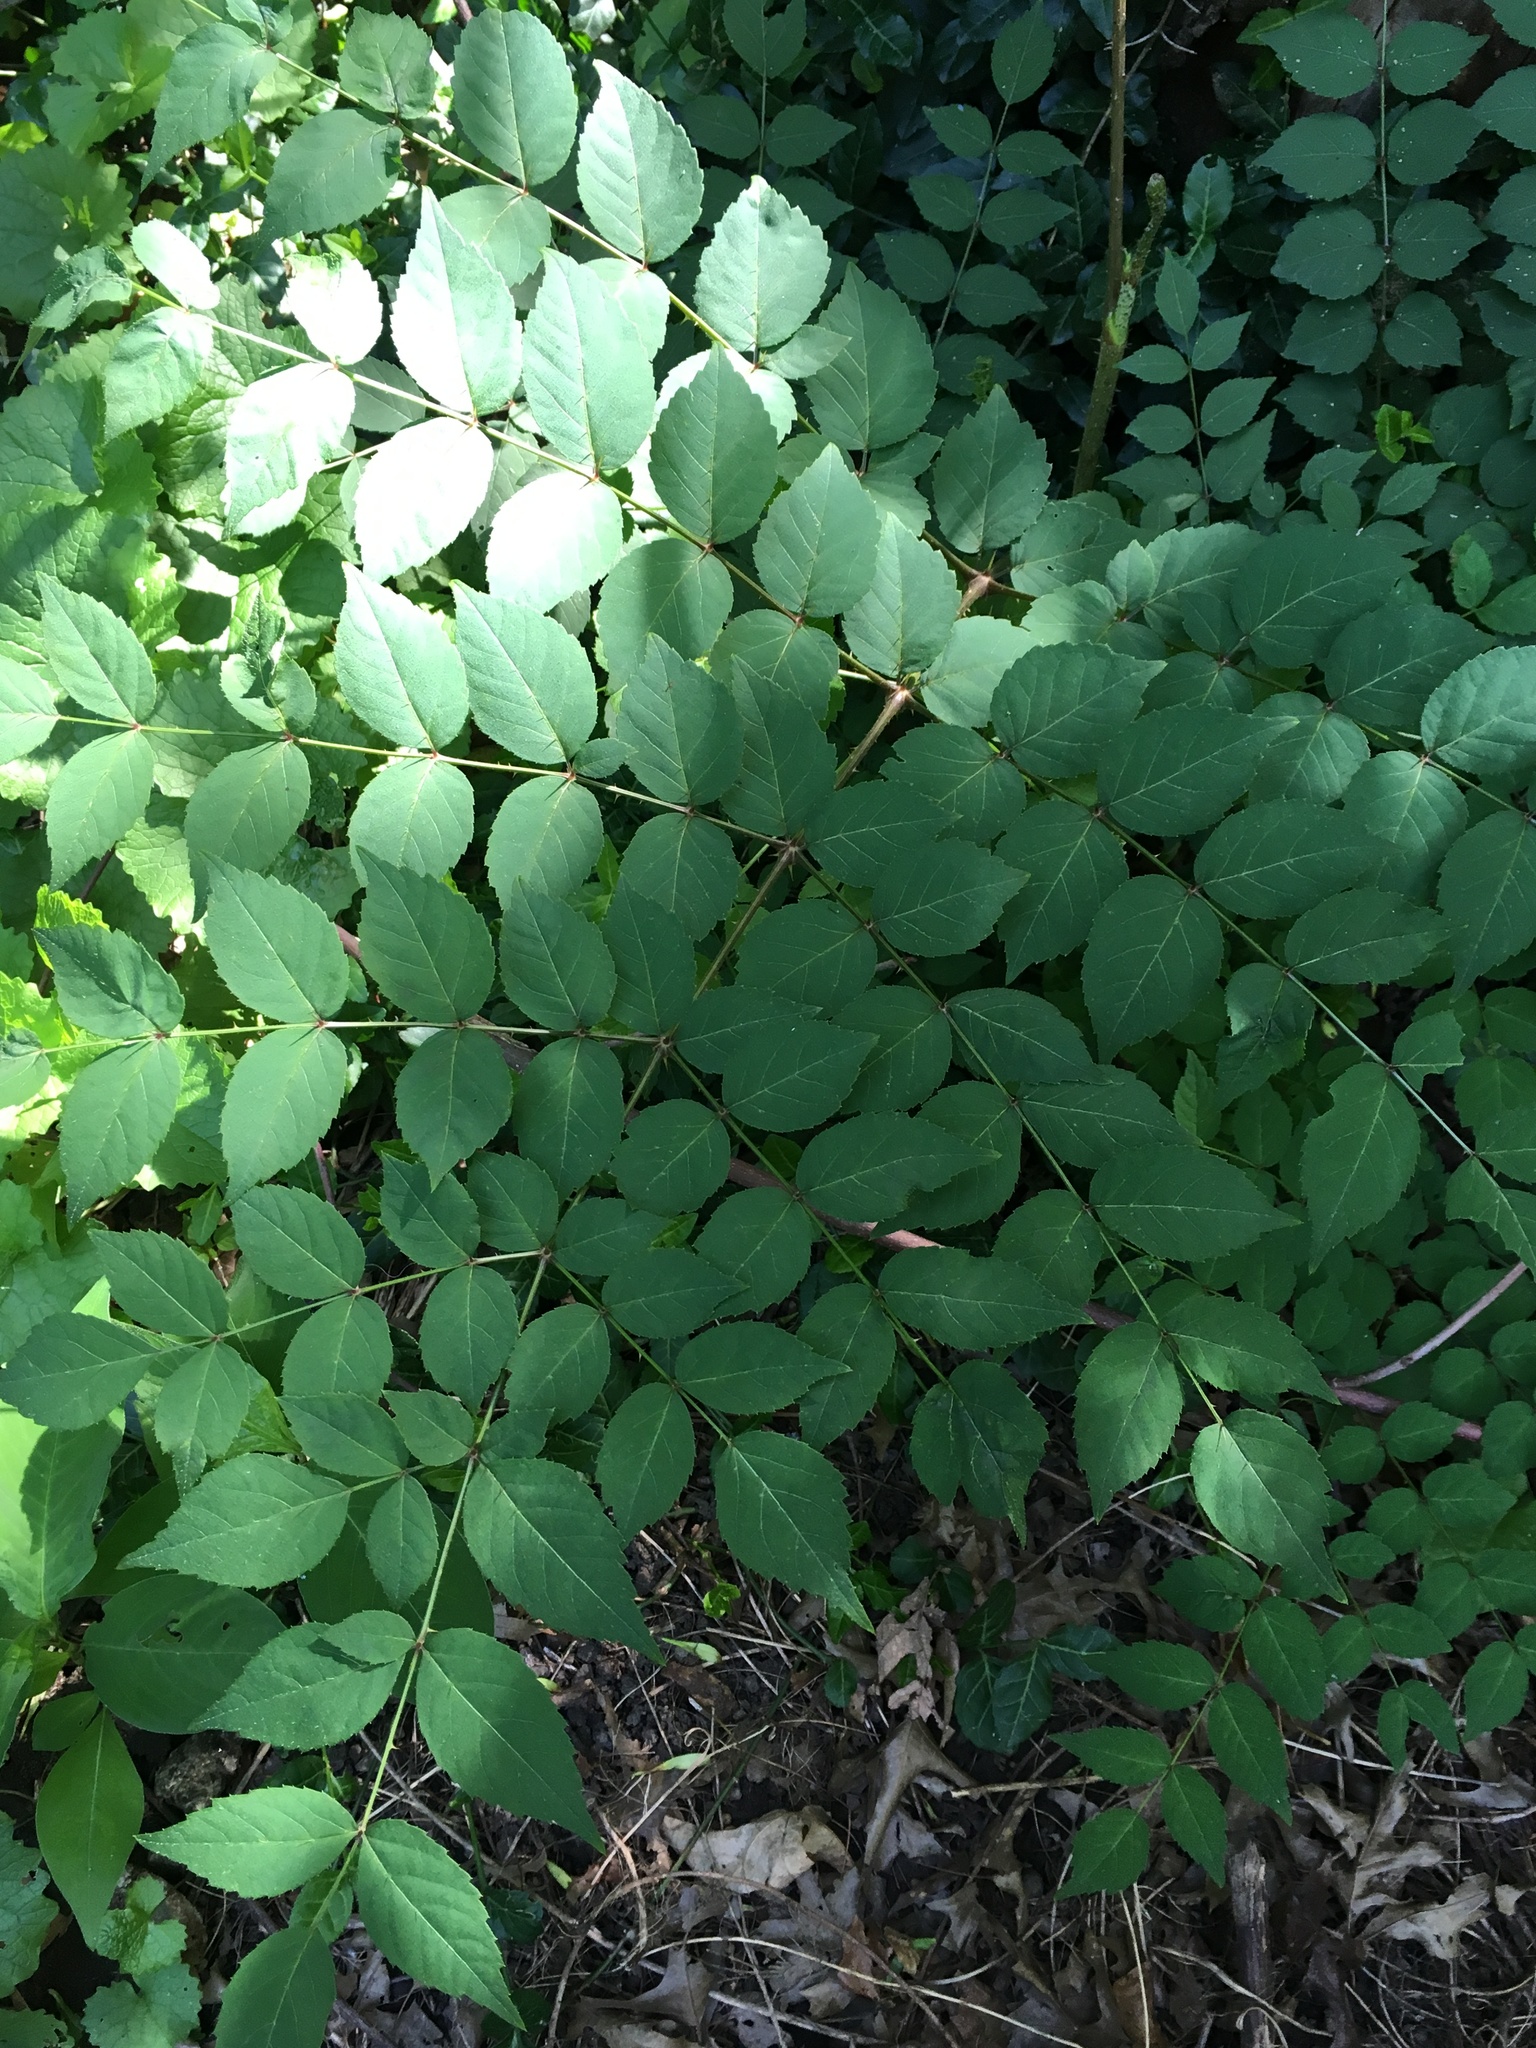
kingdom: Plantae
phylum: Tracheophyta
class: Magnoliopsida
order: Apiales
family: Araliaceae
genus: Aralia
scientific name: Aralia elata
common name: Japanese angelica-tree
